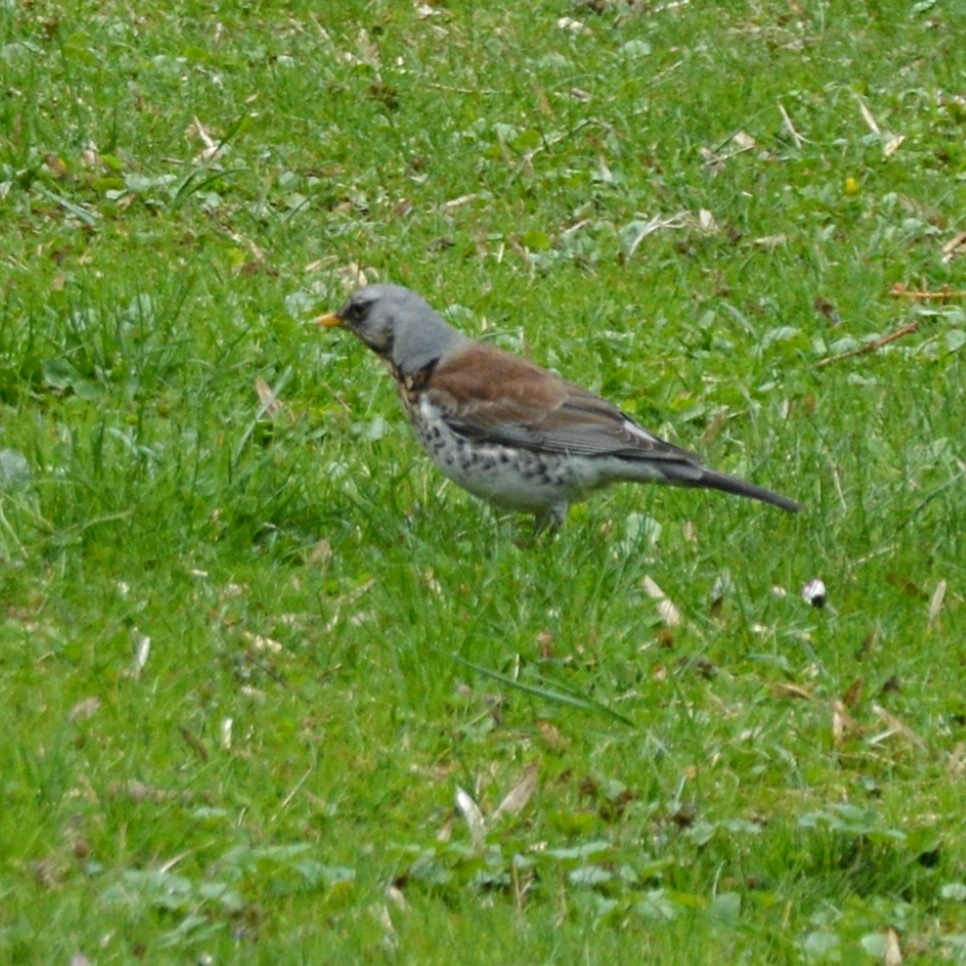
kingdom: Animalia
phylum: Chordata
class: Aves
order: Passeriformes
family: Turdidae
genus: Turdus
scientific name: Turdus pilaris
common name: Fieldfare
